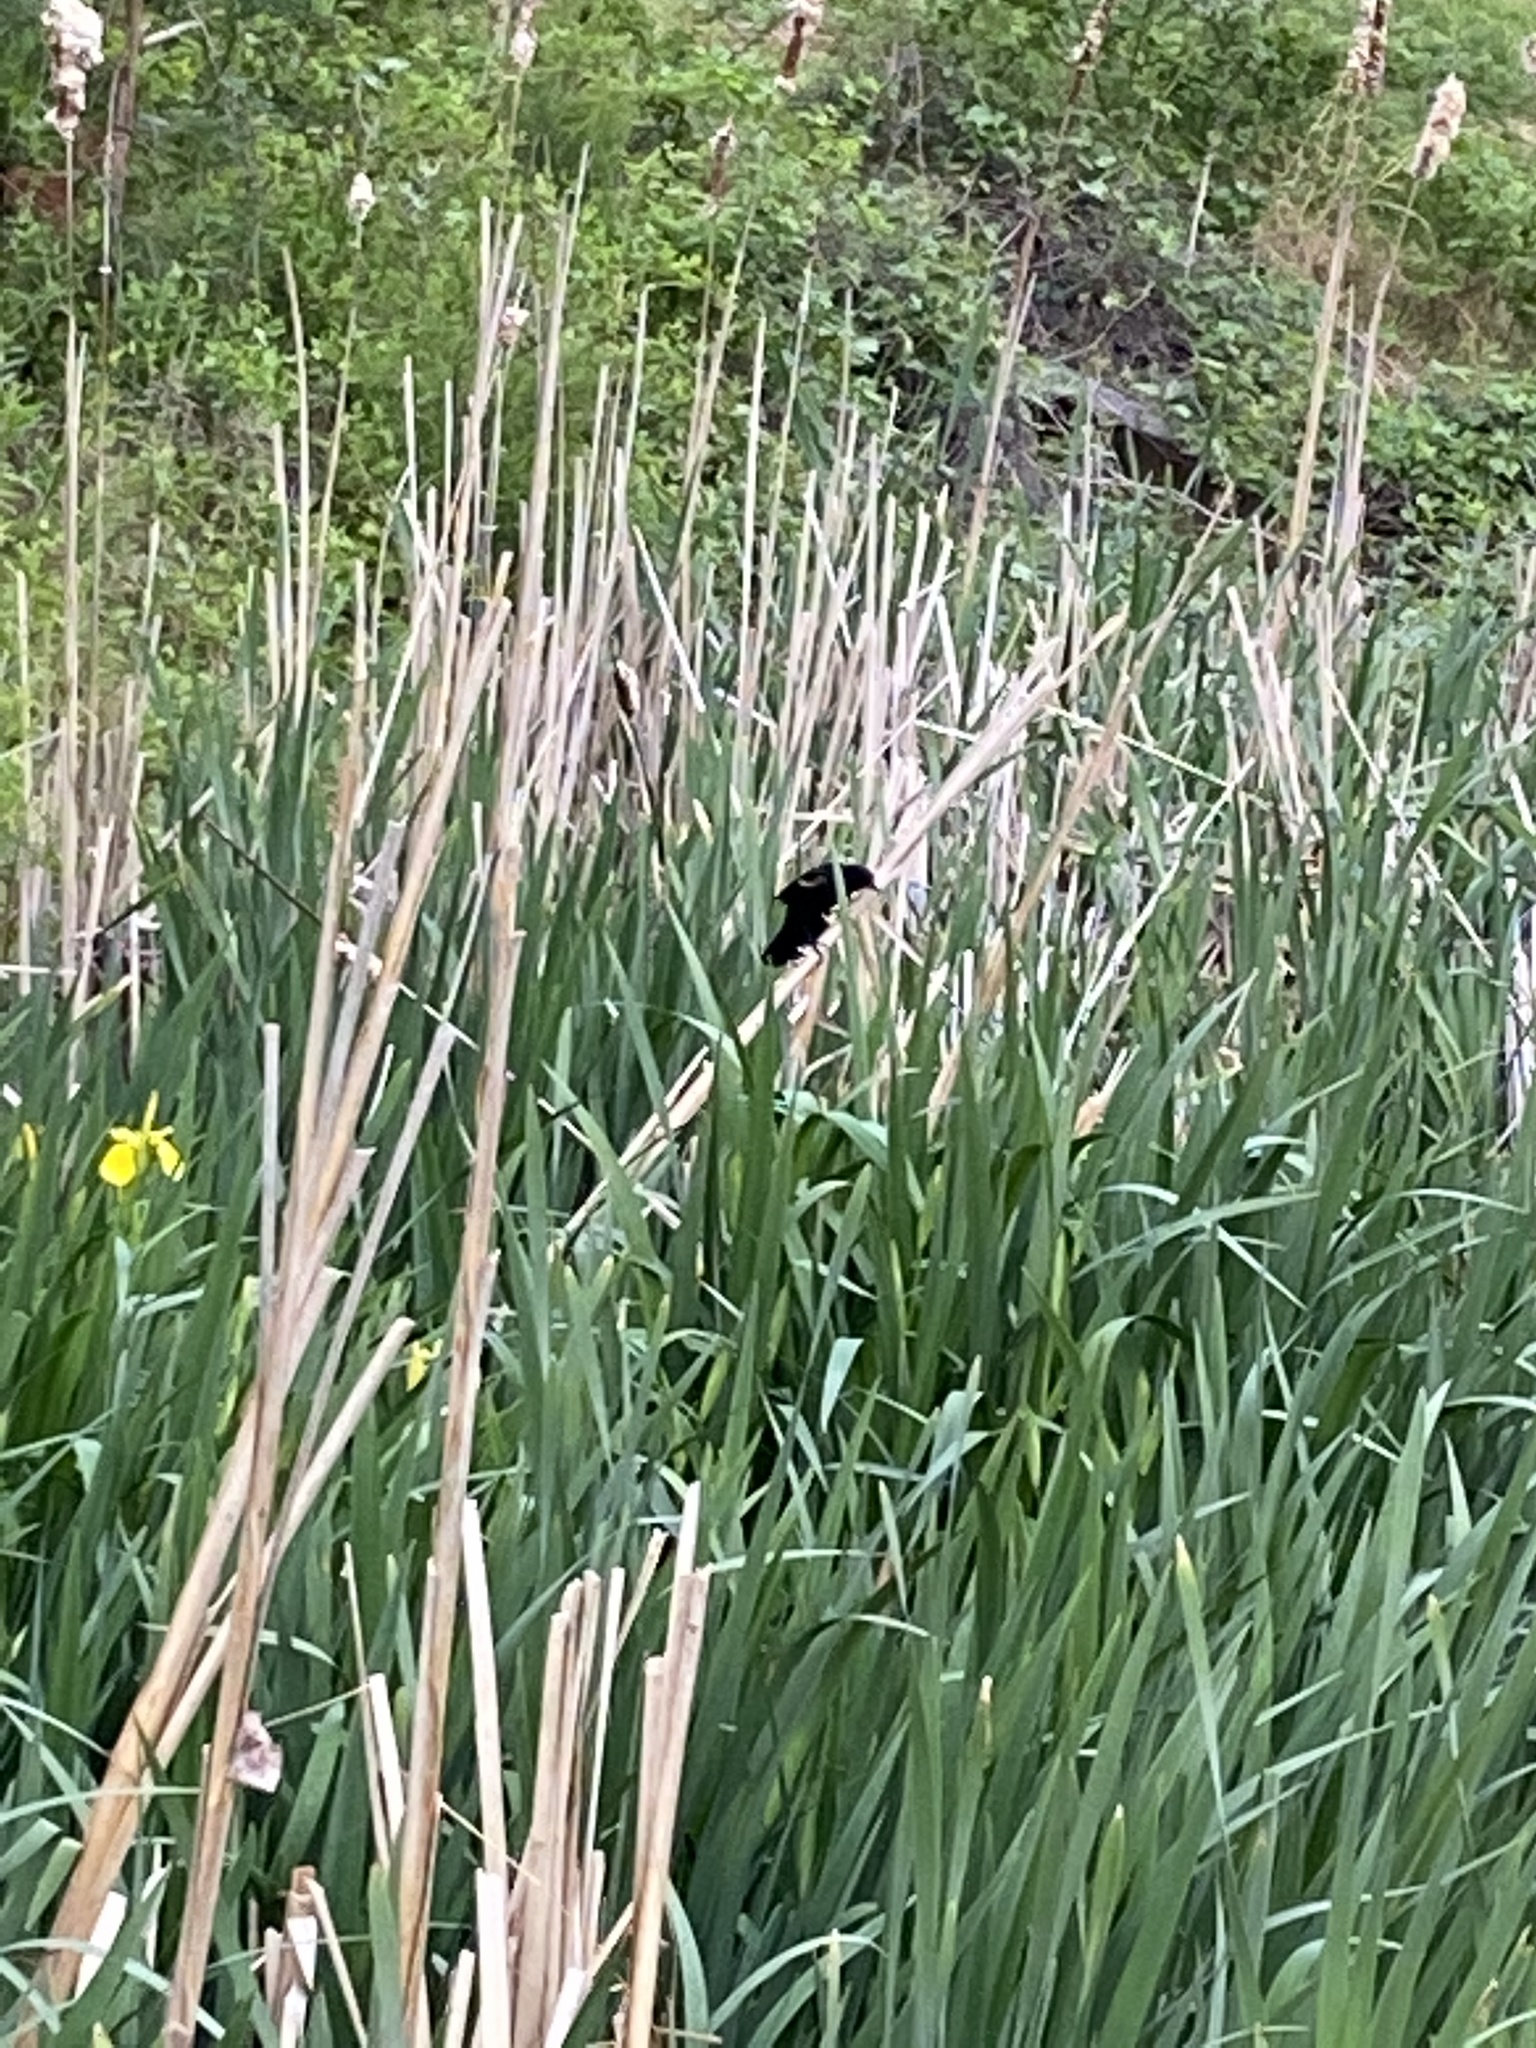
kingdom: Animalia
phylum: Chordata
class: Aves
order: Passeriformes
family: Icteridae
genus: Agelaius
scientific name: Agelaius phoeniceus
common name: Red-winged blackbird
